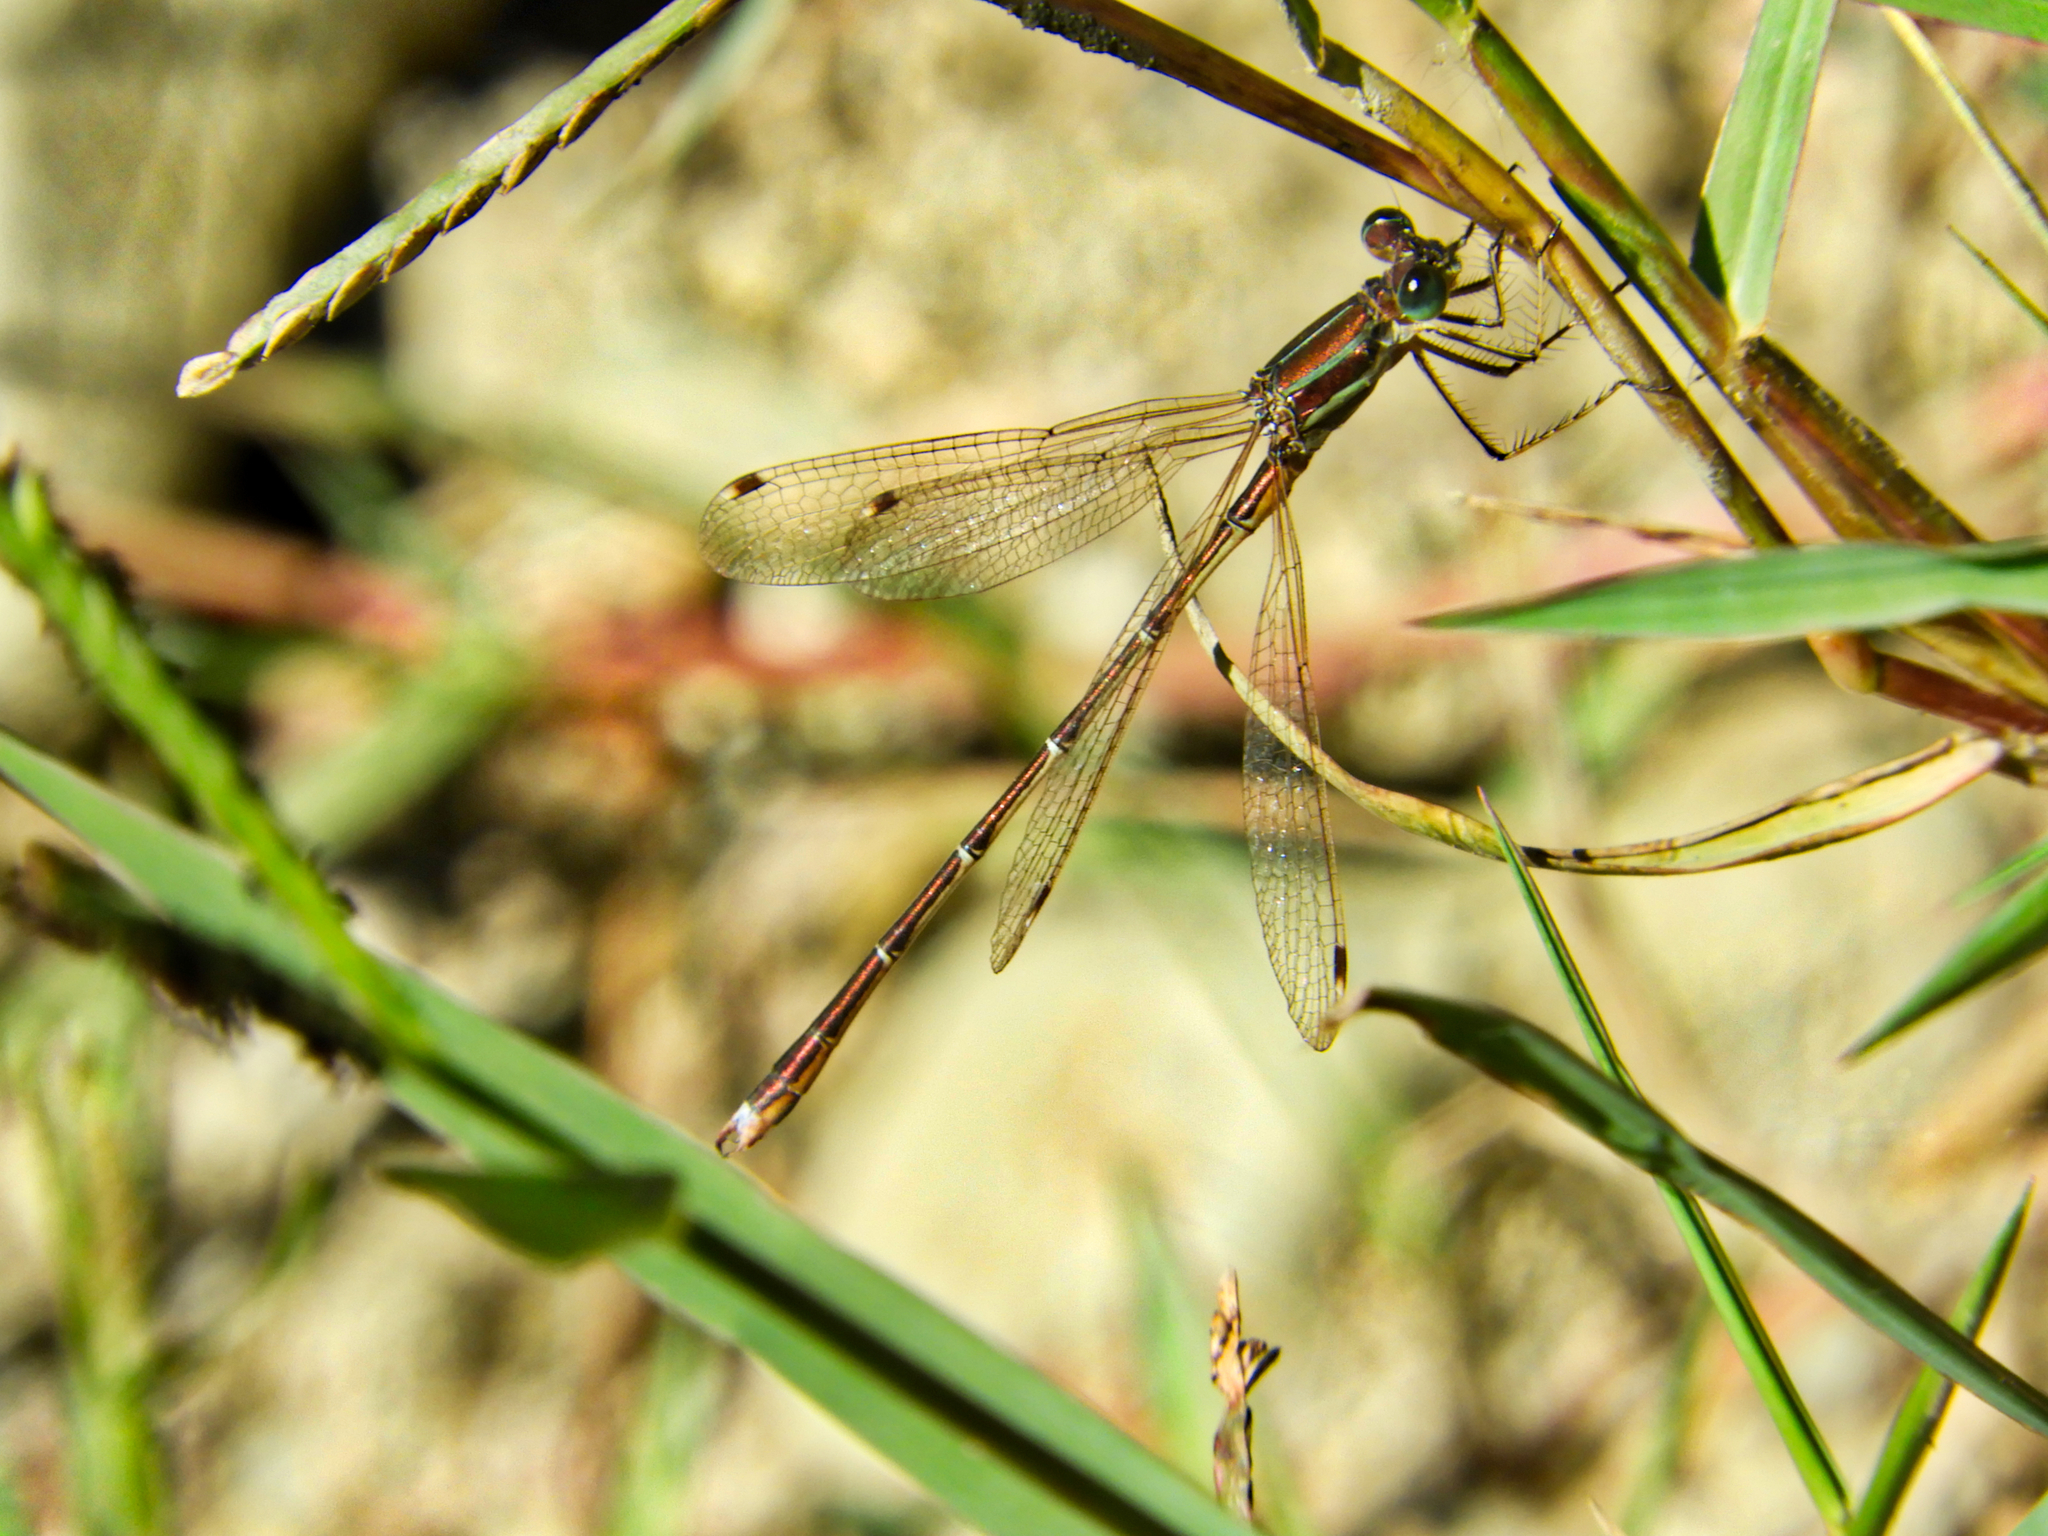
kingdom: Animalia
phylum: Arthropoda
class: Insecta
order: Odonata
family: Lestidae
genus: Lestes
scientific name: Lestes barbarus
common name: Migrant spreadwing
